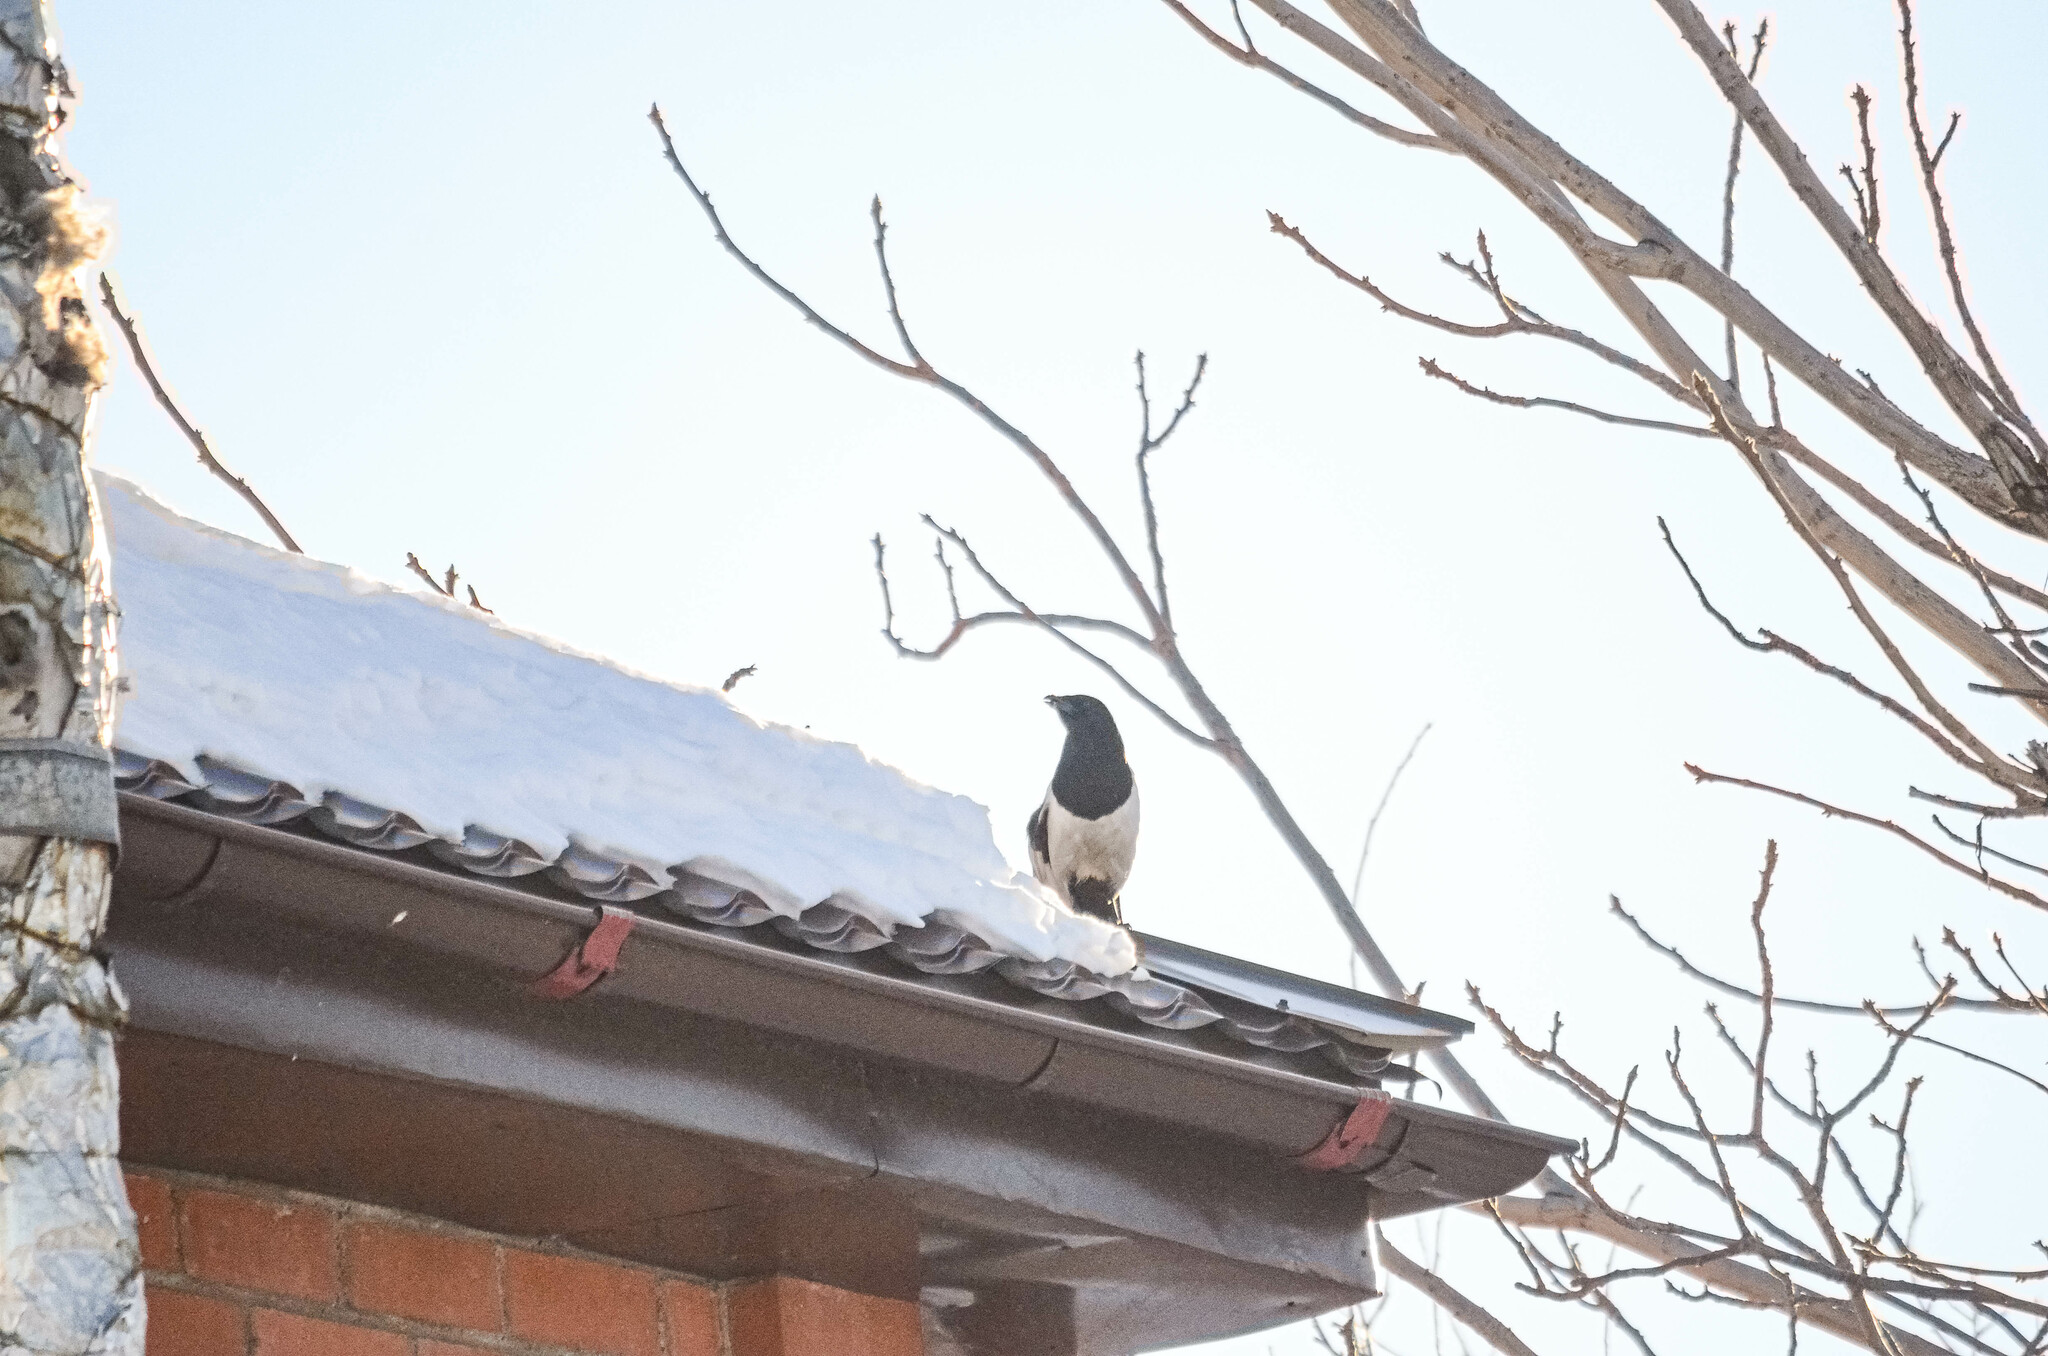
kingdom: Animalia
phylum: Chordata
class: Aves
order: Passeriformes
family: Corvidae
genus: Pica
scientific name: Pica pica
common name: Eurasian magpie
